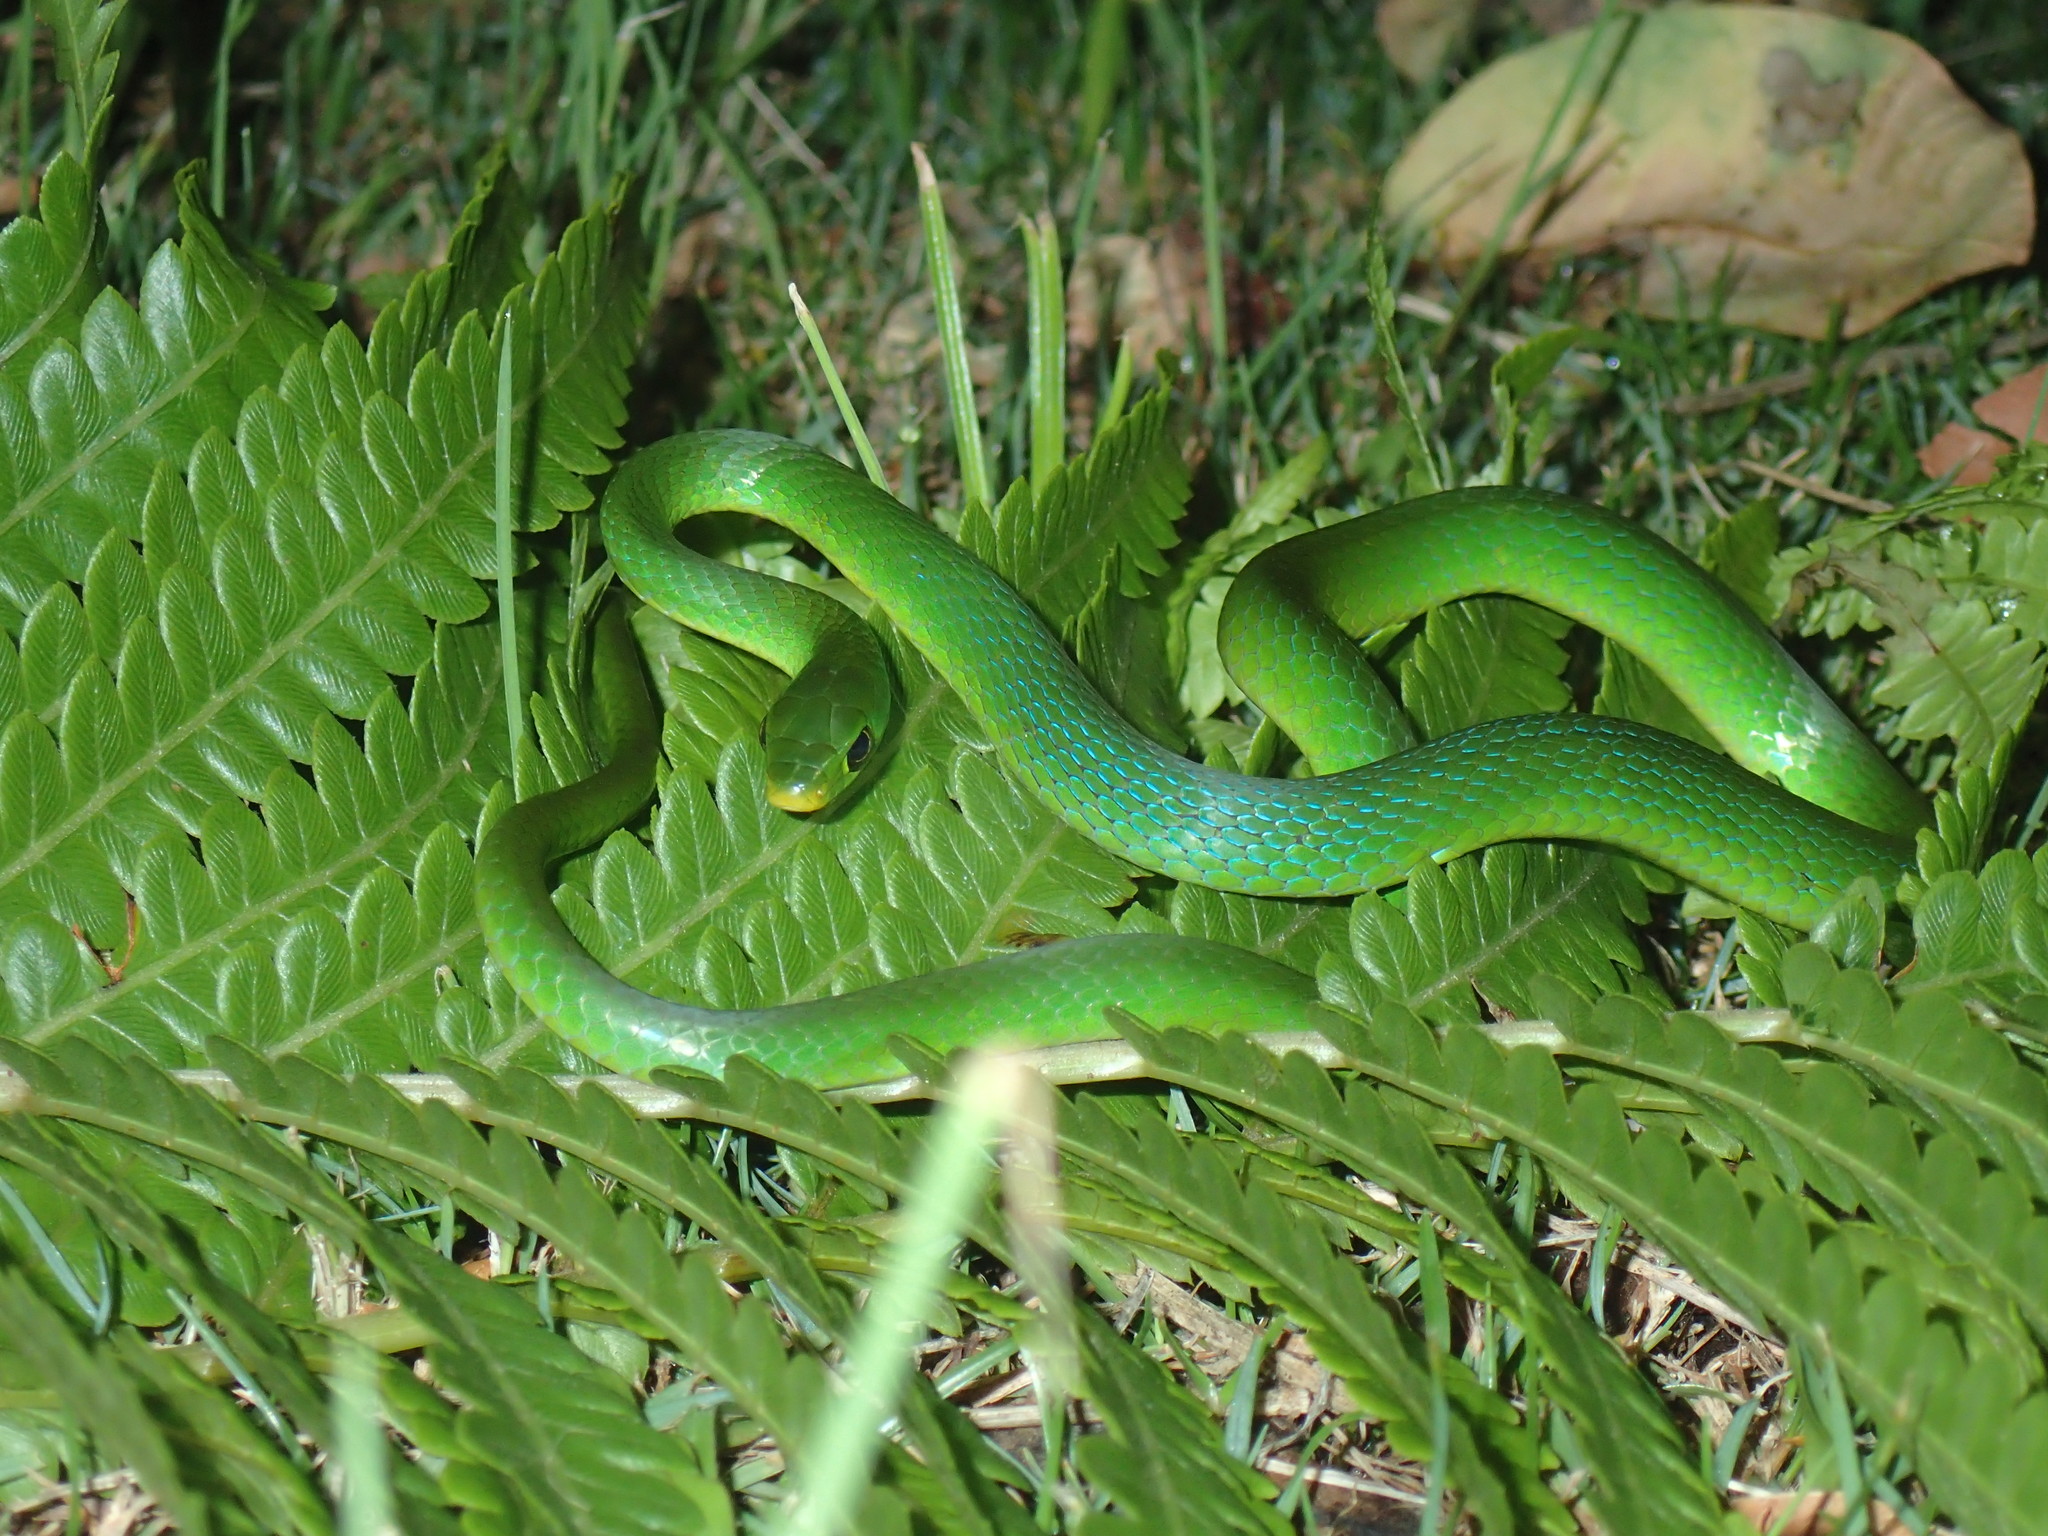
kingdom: Animalia
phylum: Chordata
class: Squamata
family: Colubridae
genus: Philothamnus
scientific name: Philothamnus hoplogaster
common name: Green water snake
